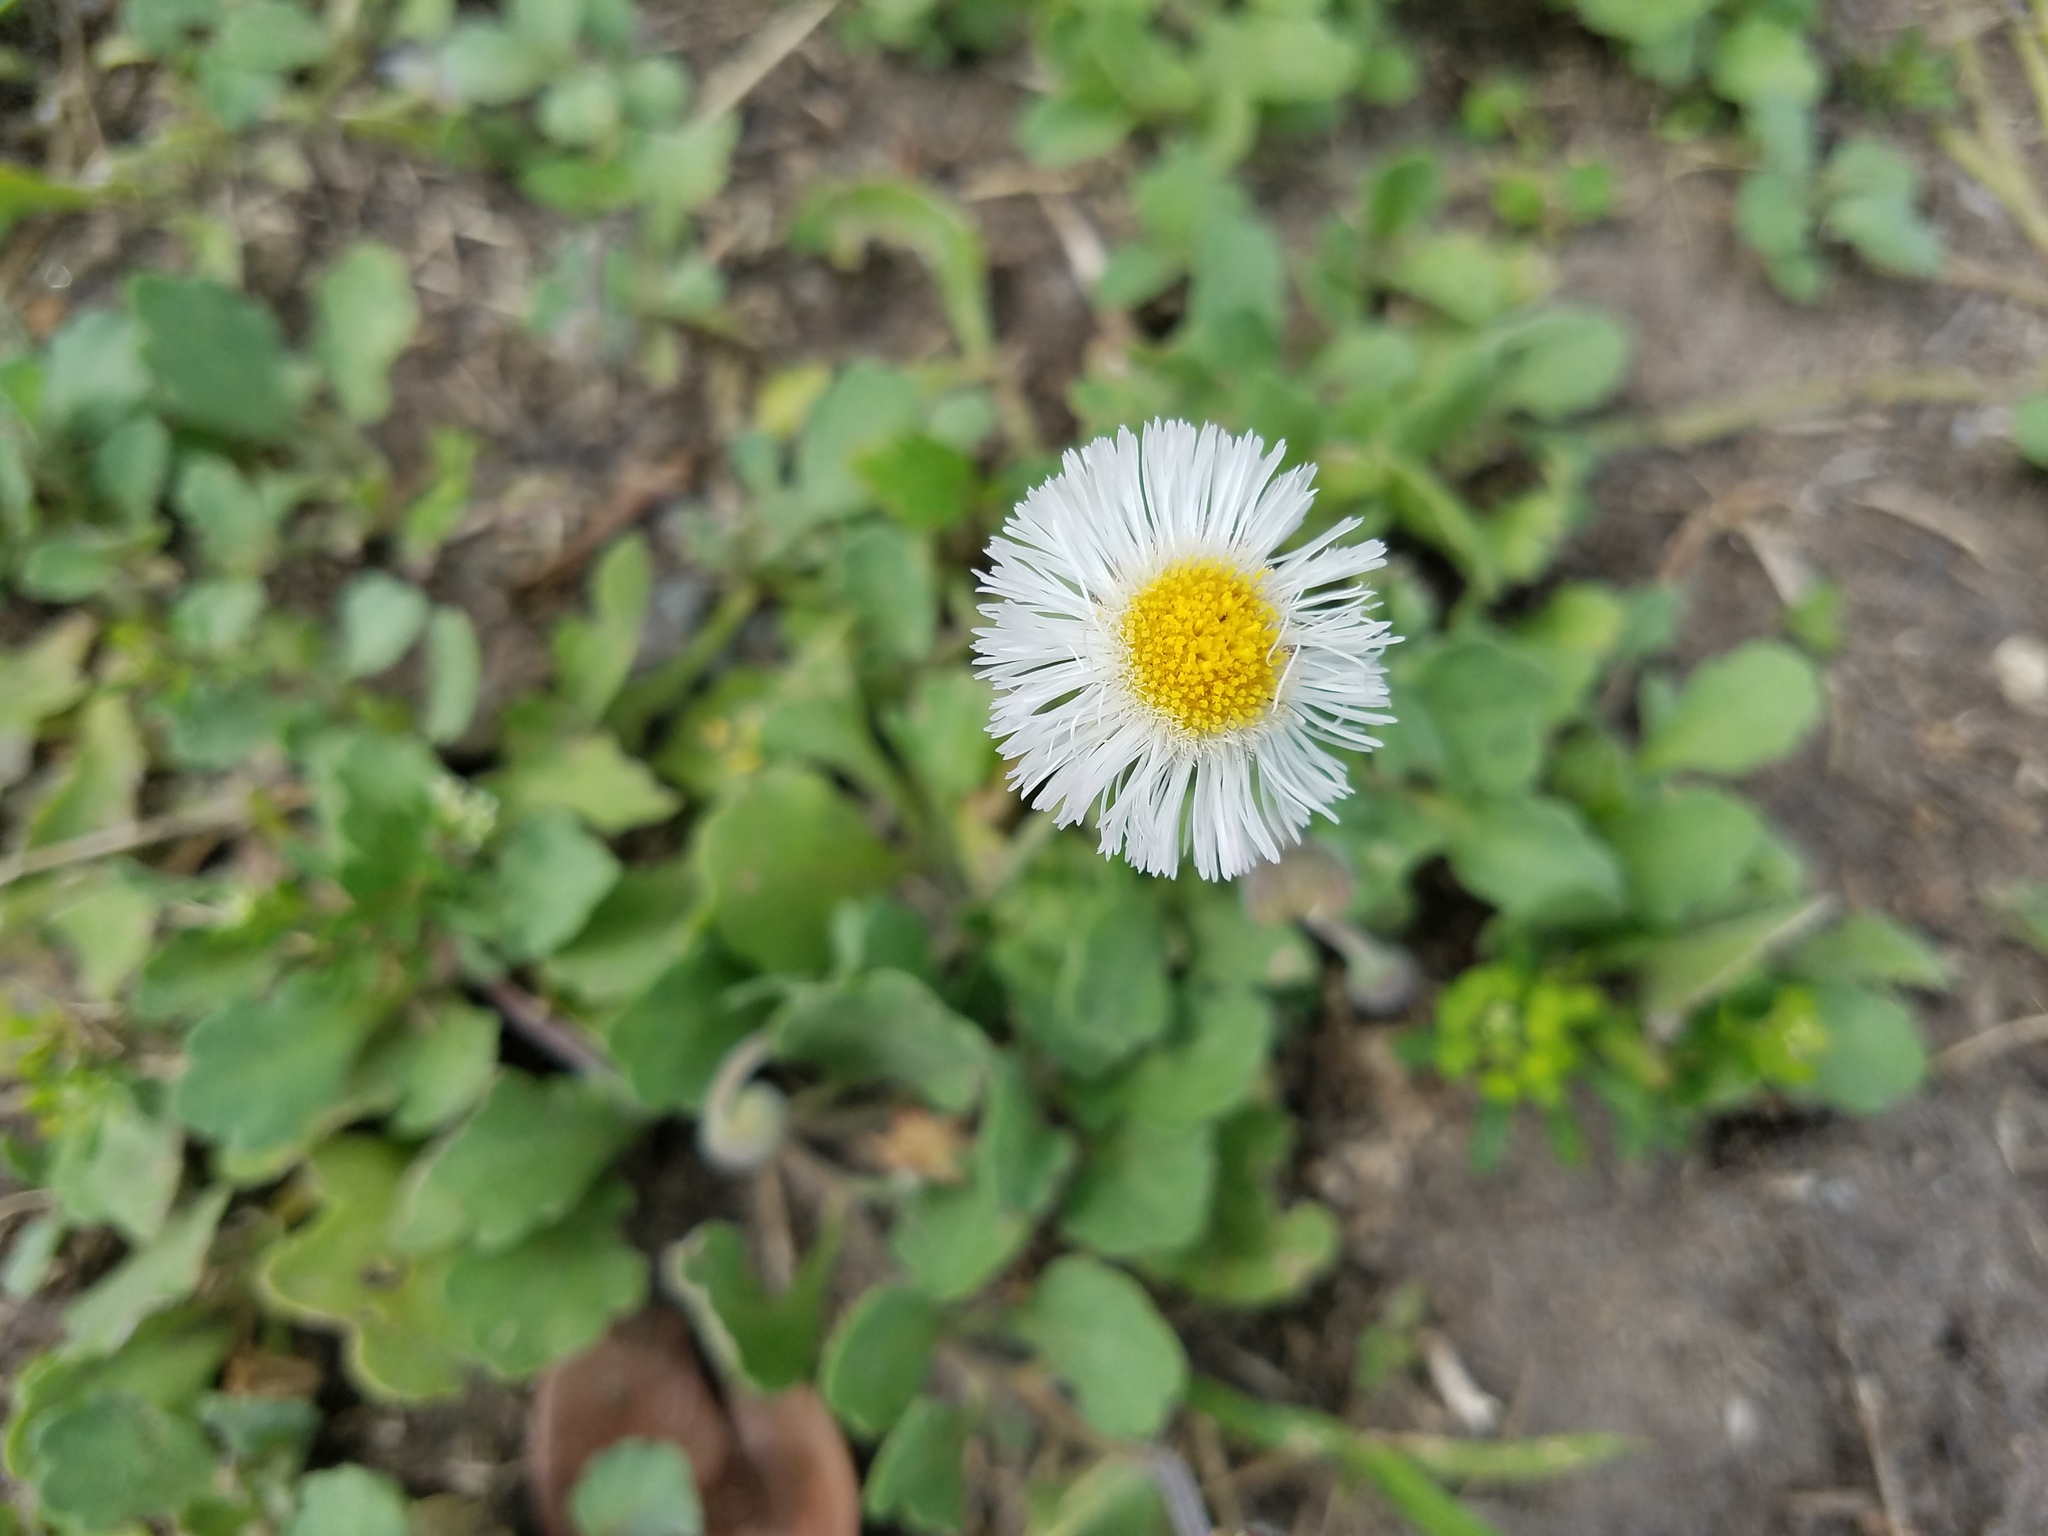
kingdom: Plantae
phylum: Tracheophyta
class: Magnoliopsida
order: Asterales
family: Asteraceae
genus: Erigeron
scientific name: Erigeron procumbens
